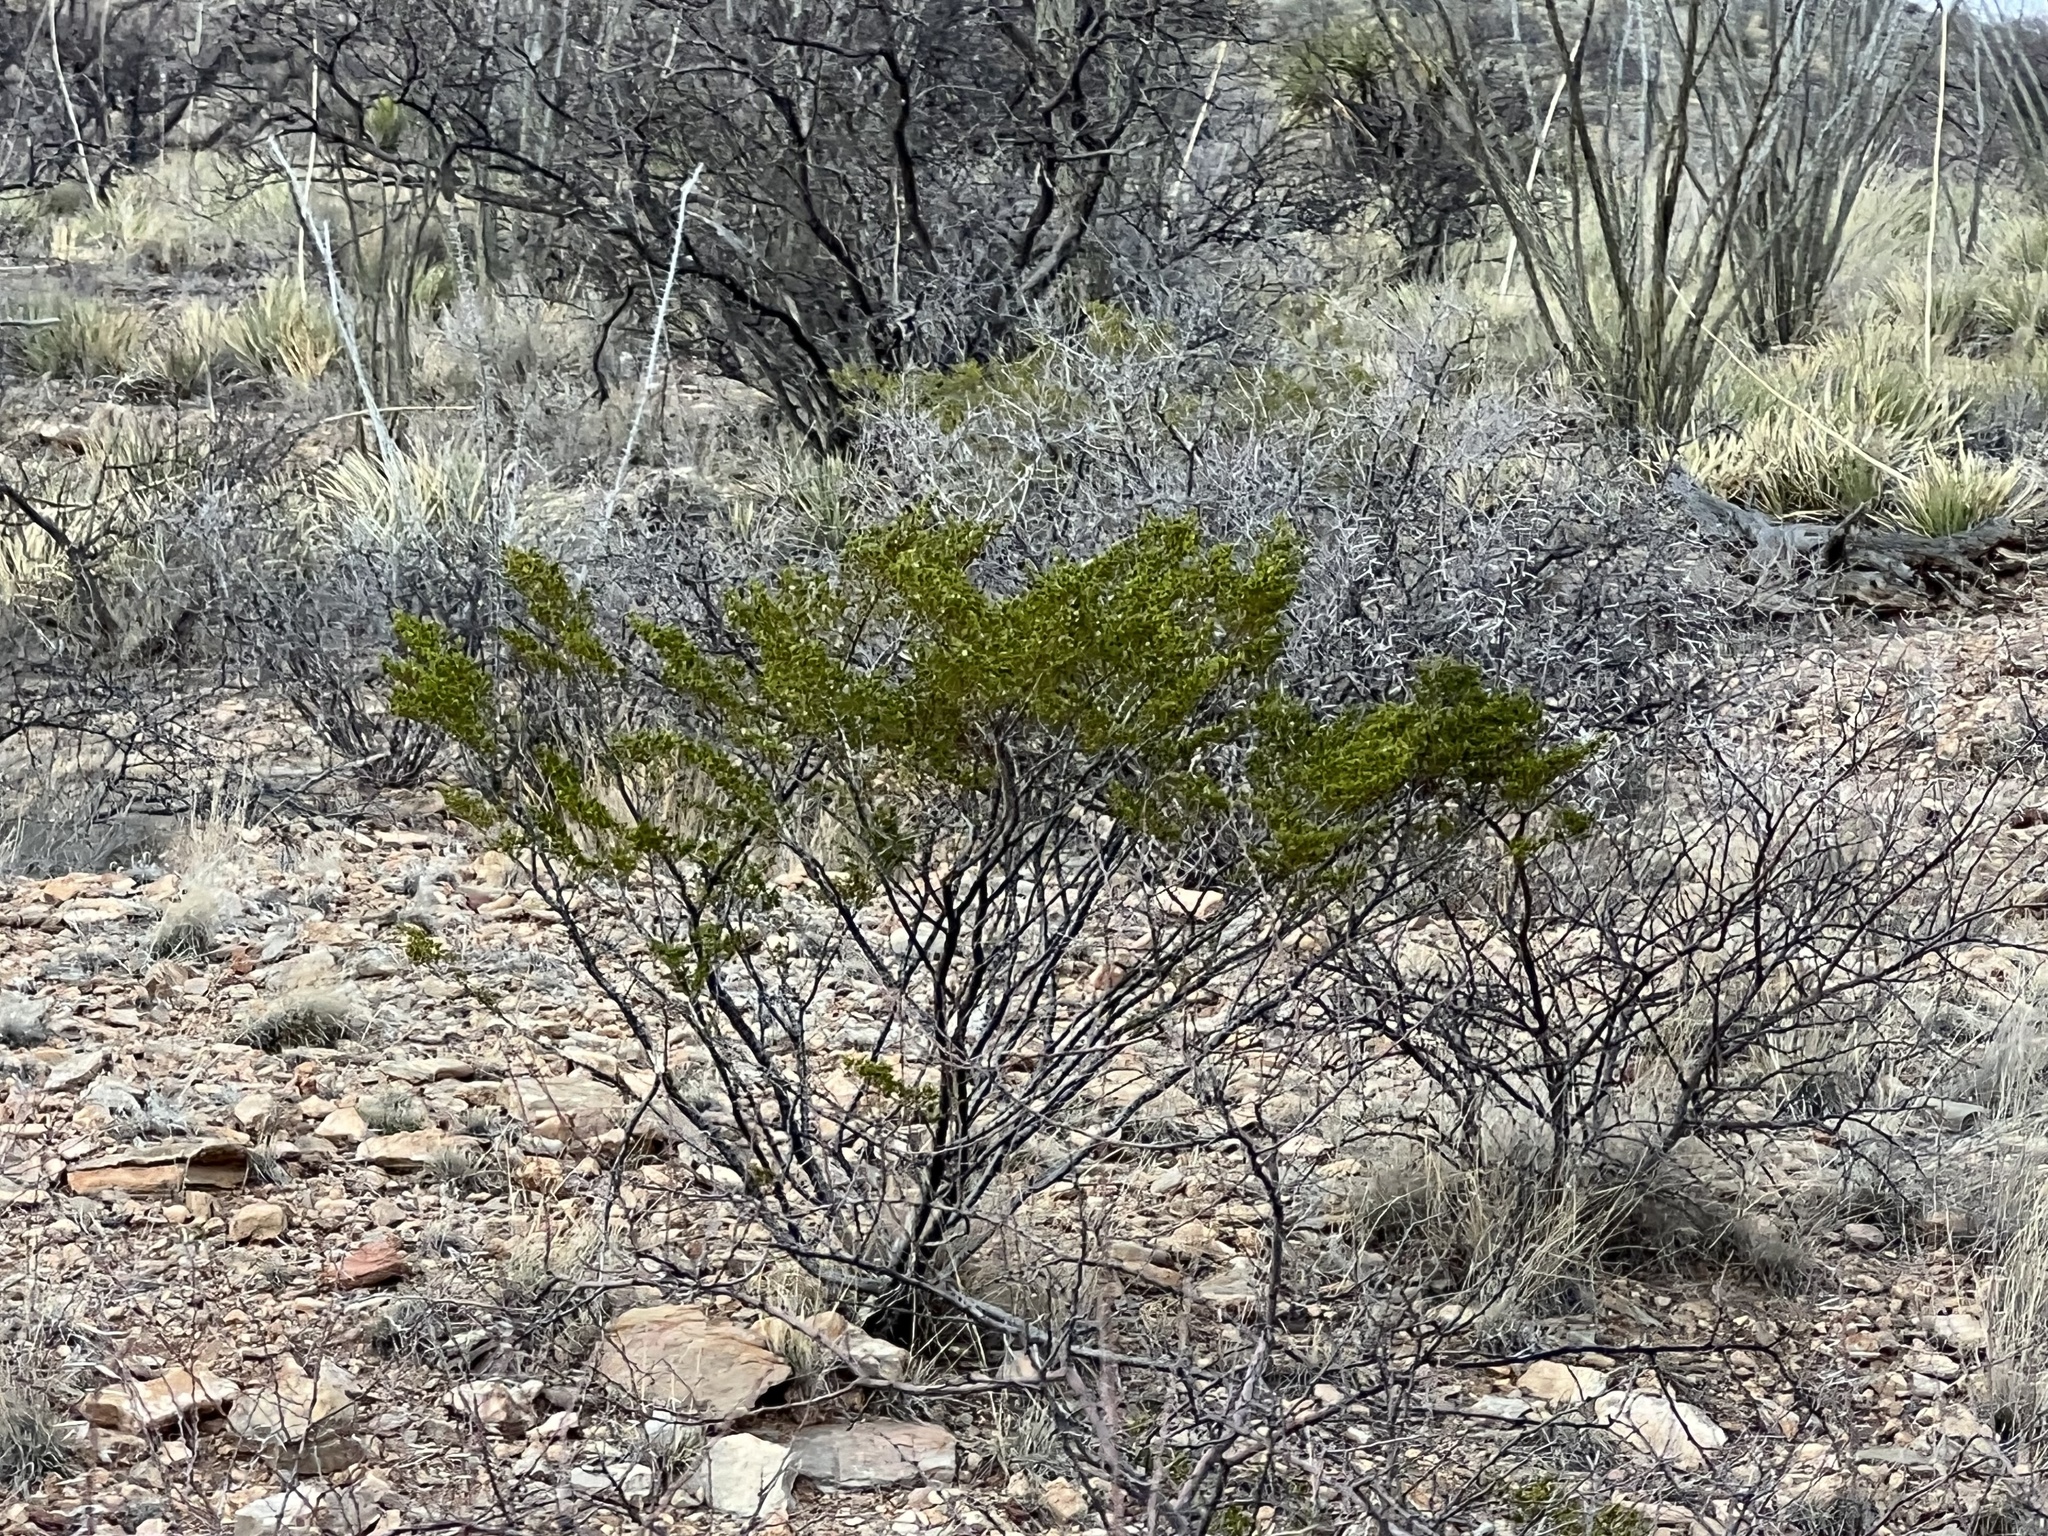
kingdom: Plantae
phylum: Tracheophyta
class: Magnoliopsida
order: Zygophyllales
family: Zygophyllaceae
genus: Larrea
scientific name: Larrea tridentata
